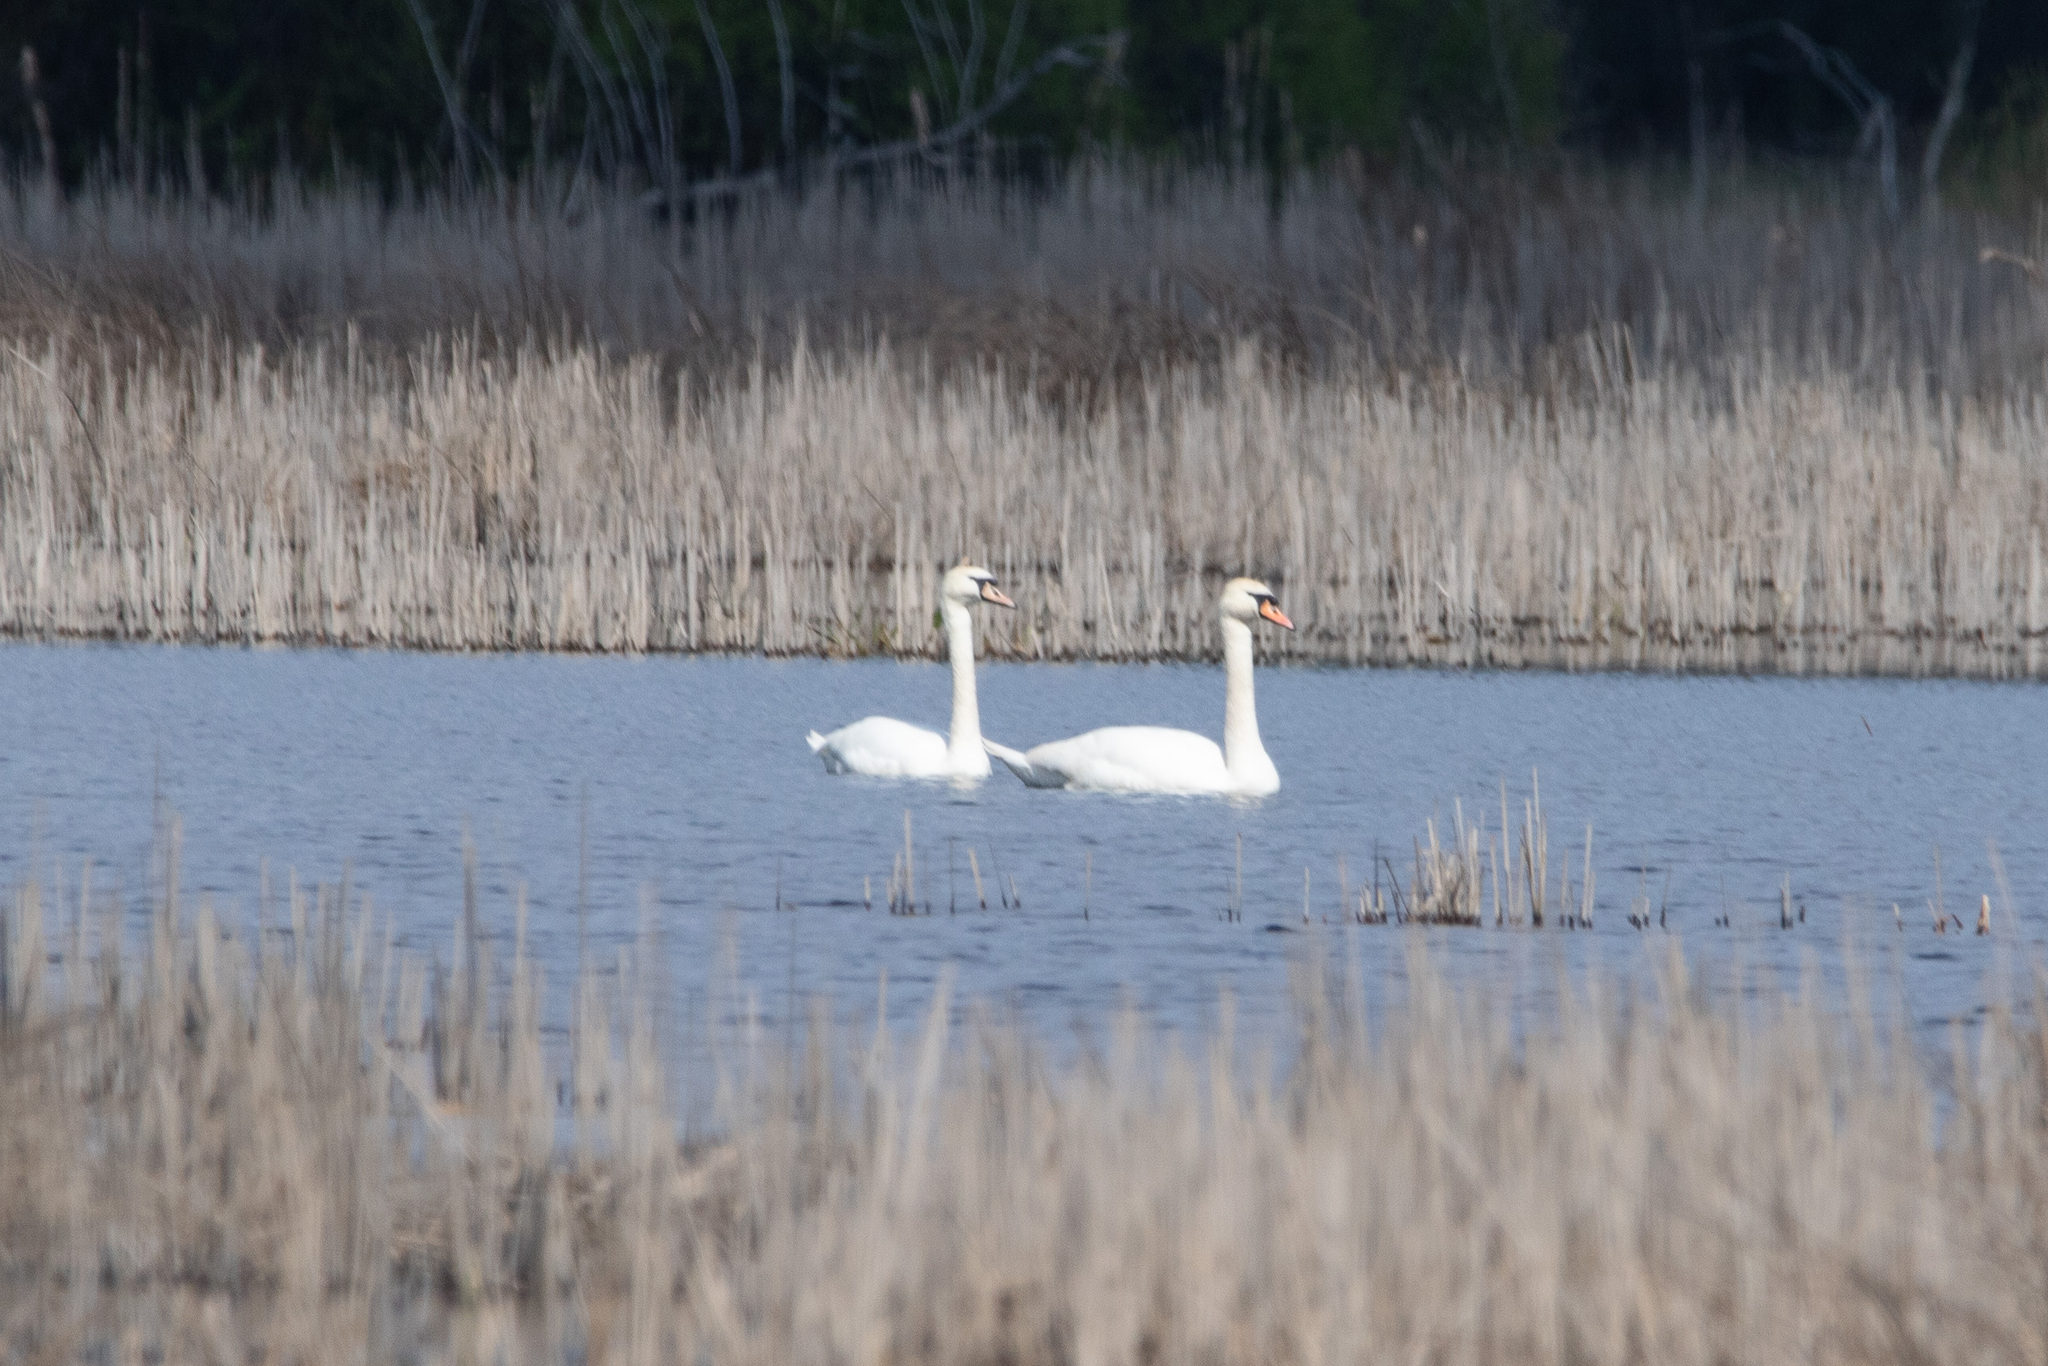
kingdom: Animalia
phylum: Chordata
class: Aves
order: Anseriformes
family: Anatidae
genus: Cygnus
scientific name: Cygnus olor
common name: Mute swan
